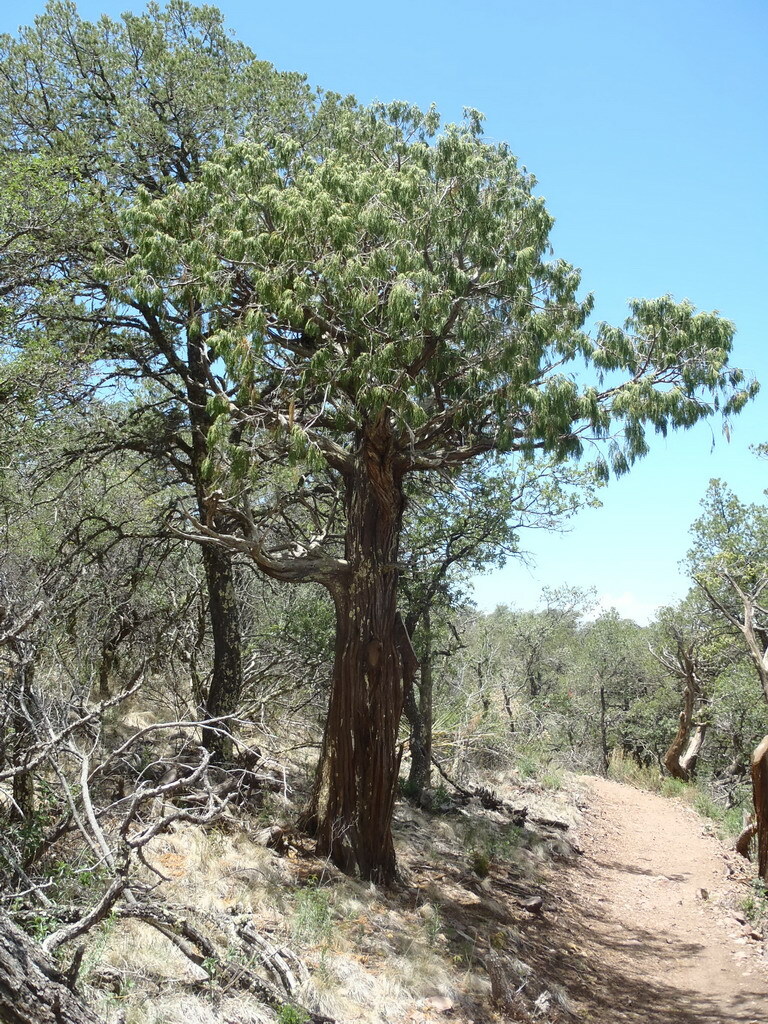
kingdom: Plantae
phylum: Tracheophyta
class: Pinopsida
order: Pinales
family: Cupressaceae
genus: Juniperus
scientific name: Juniperus flaccida
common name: Drooping juniper
